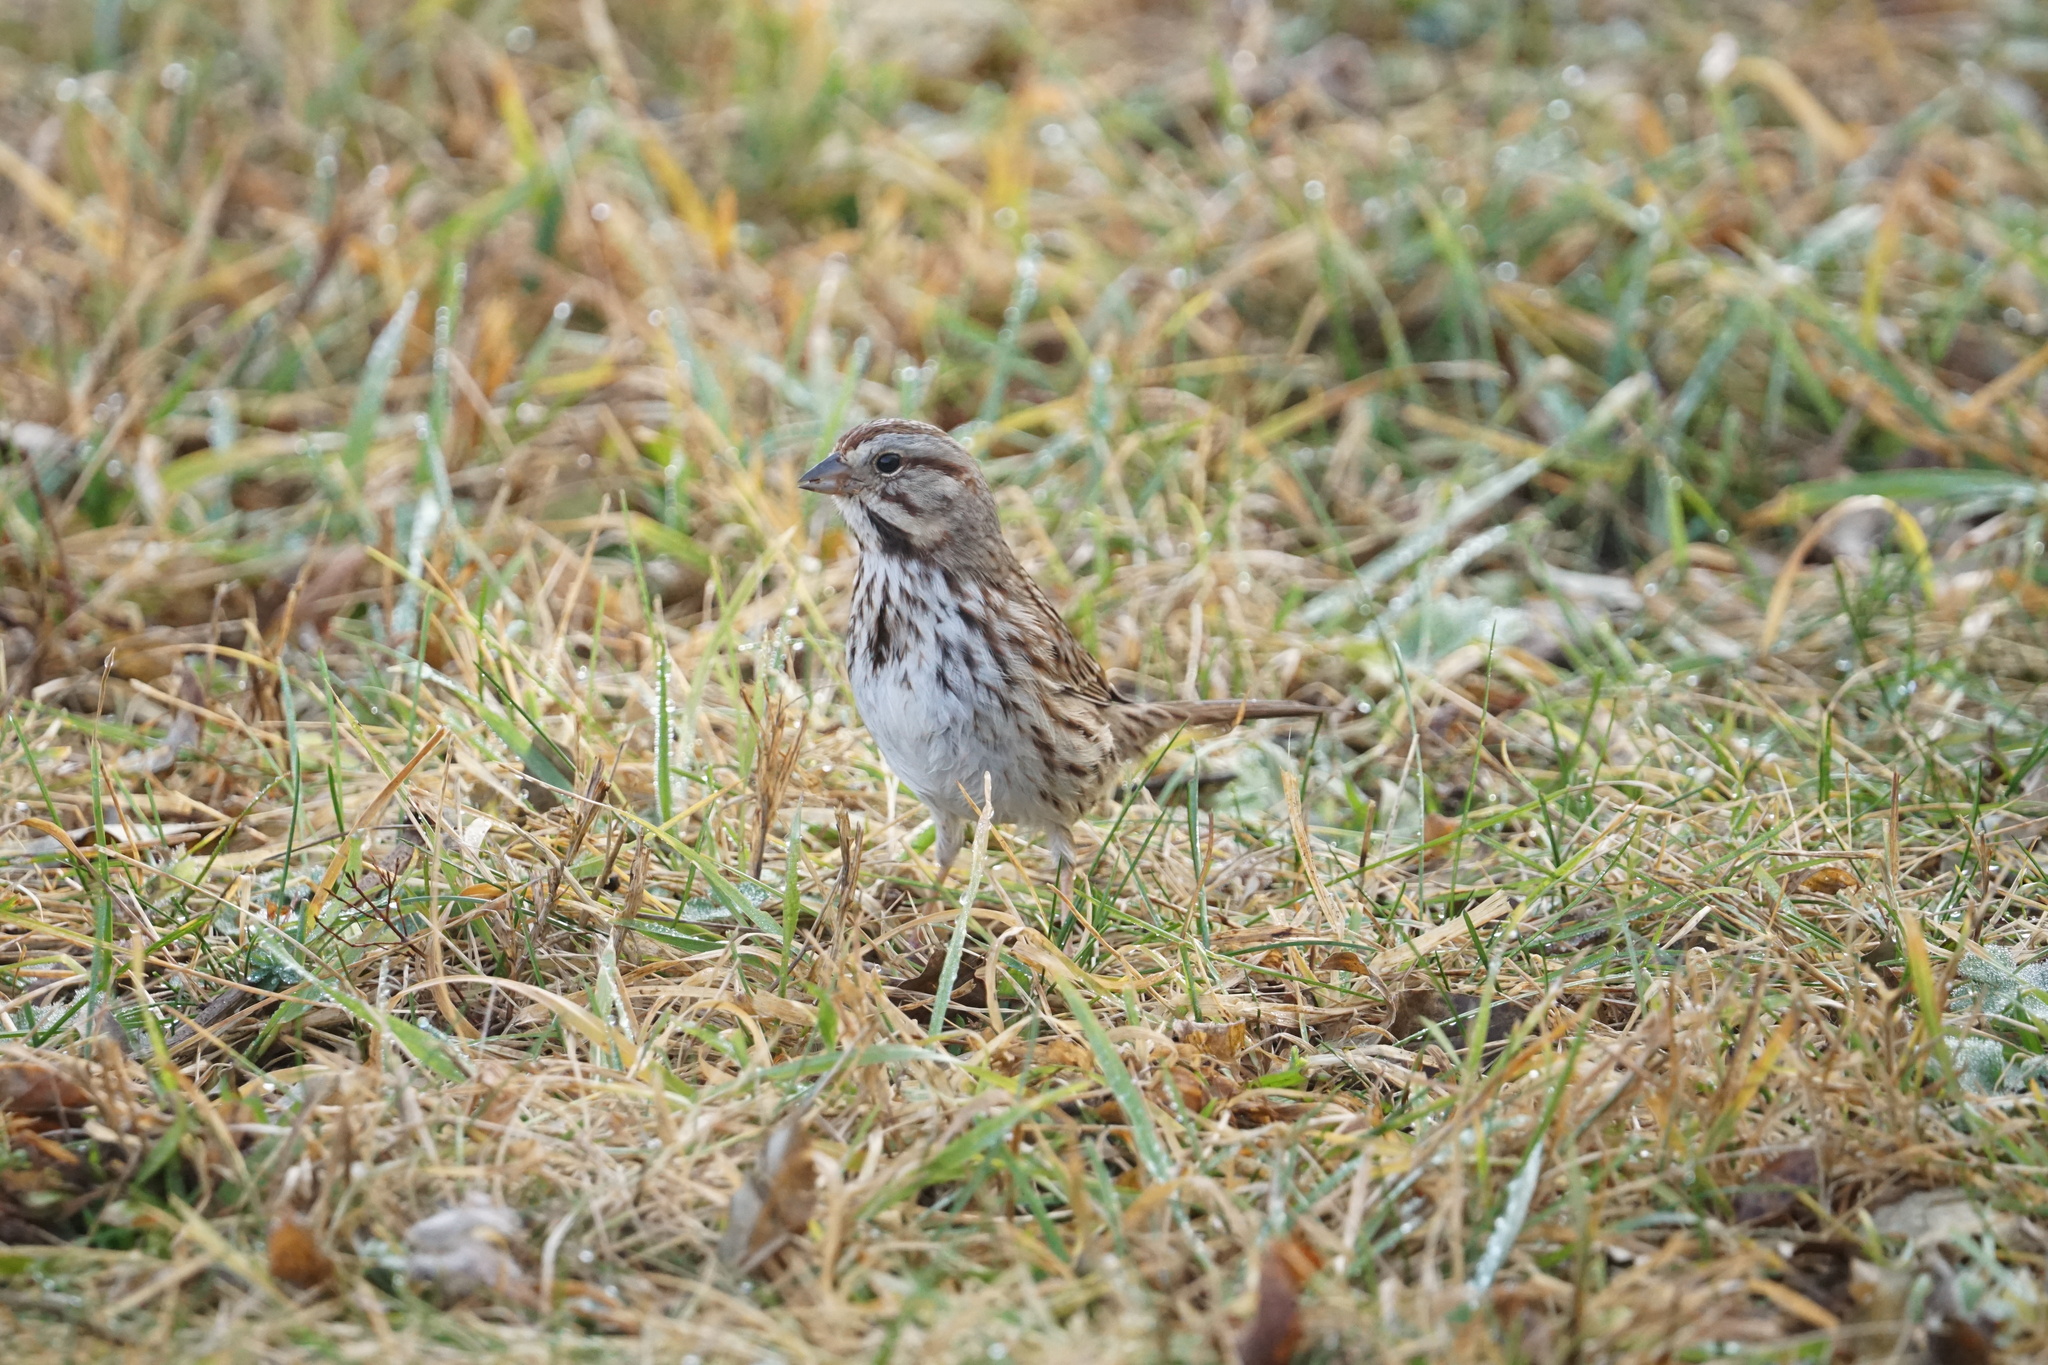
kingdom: Animalia
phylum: Chordata
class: Aves
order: Passeriformes
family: Passerellidae
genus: Melospiza
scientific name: Melospiza melodia
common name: Song sparrow
